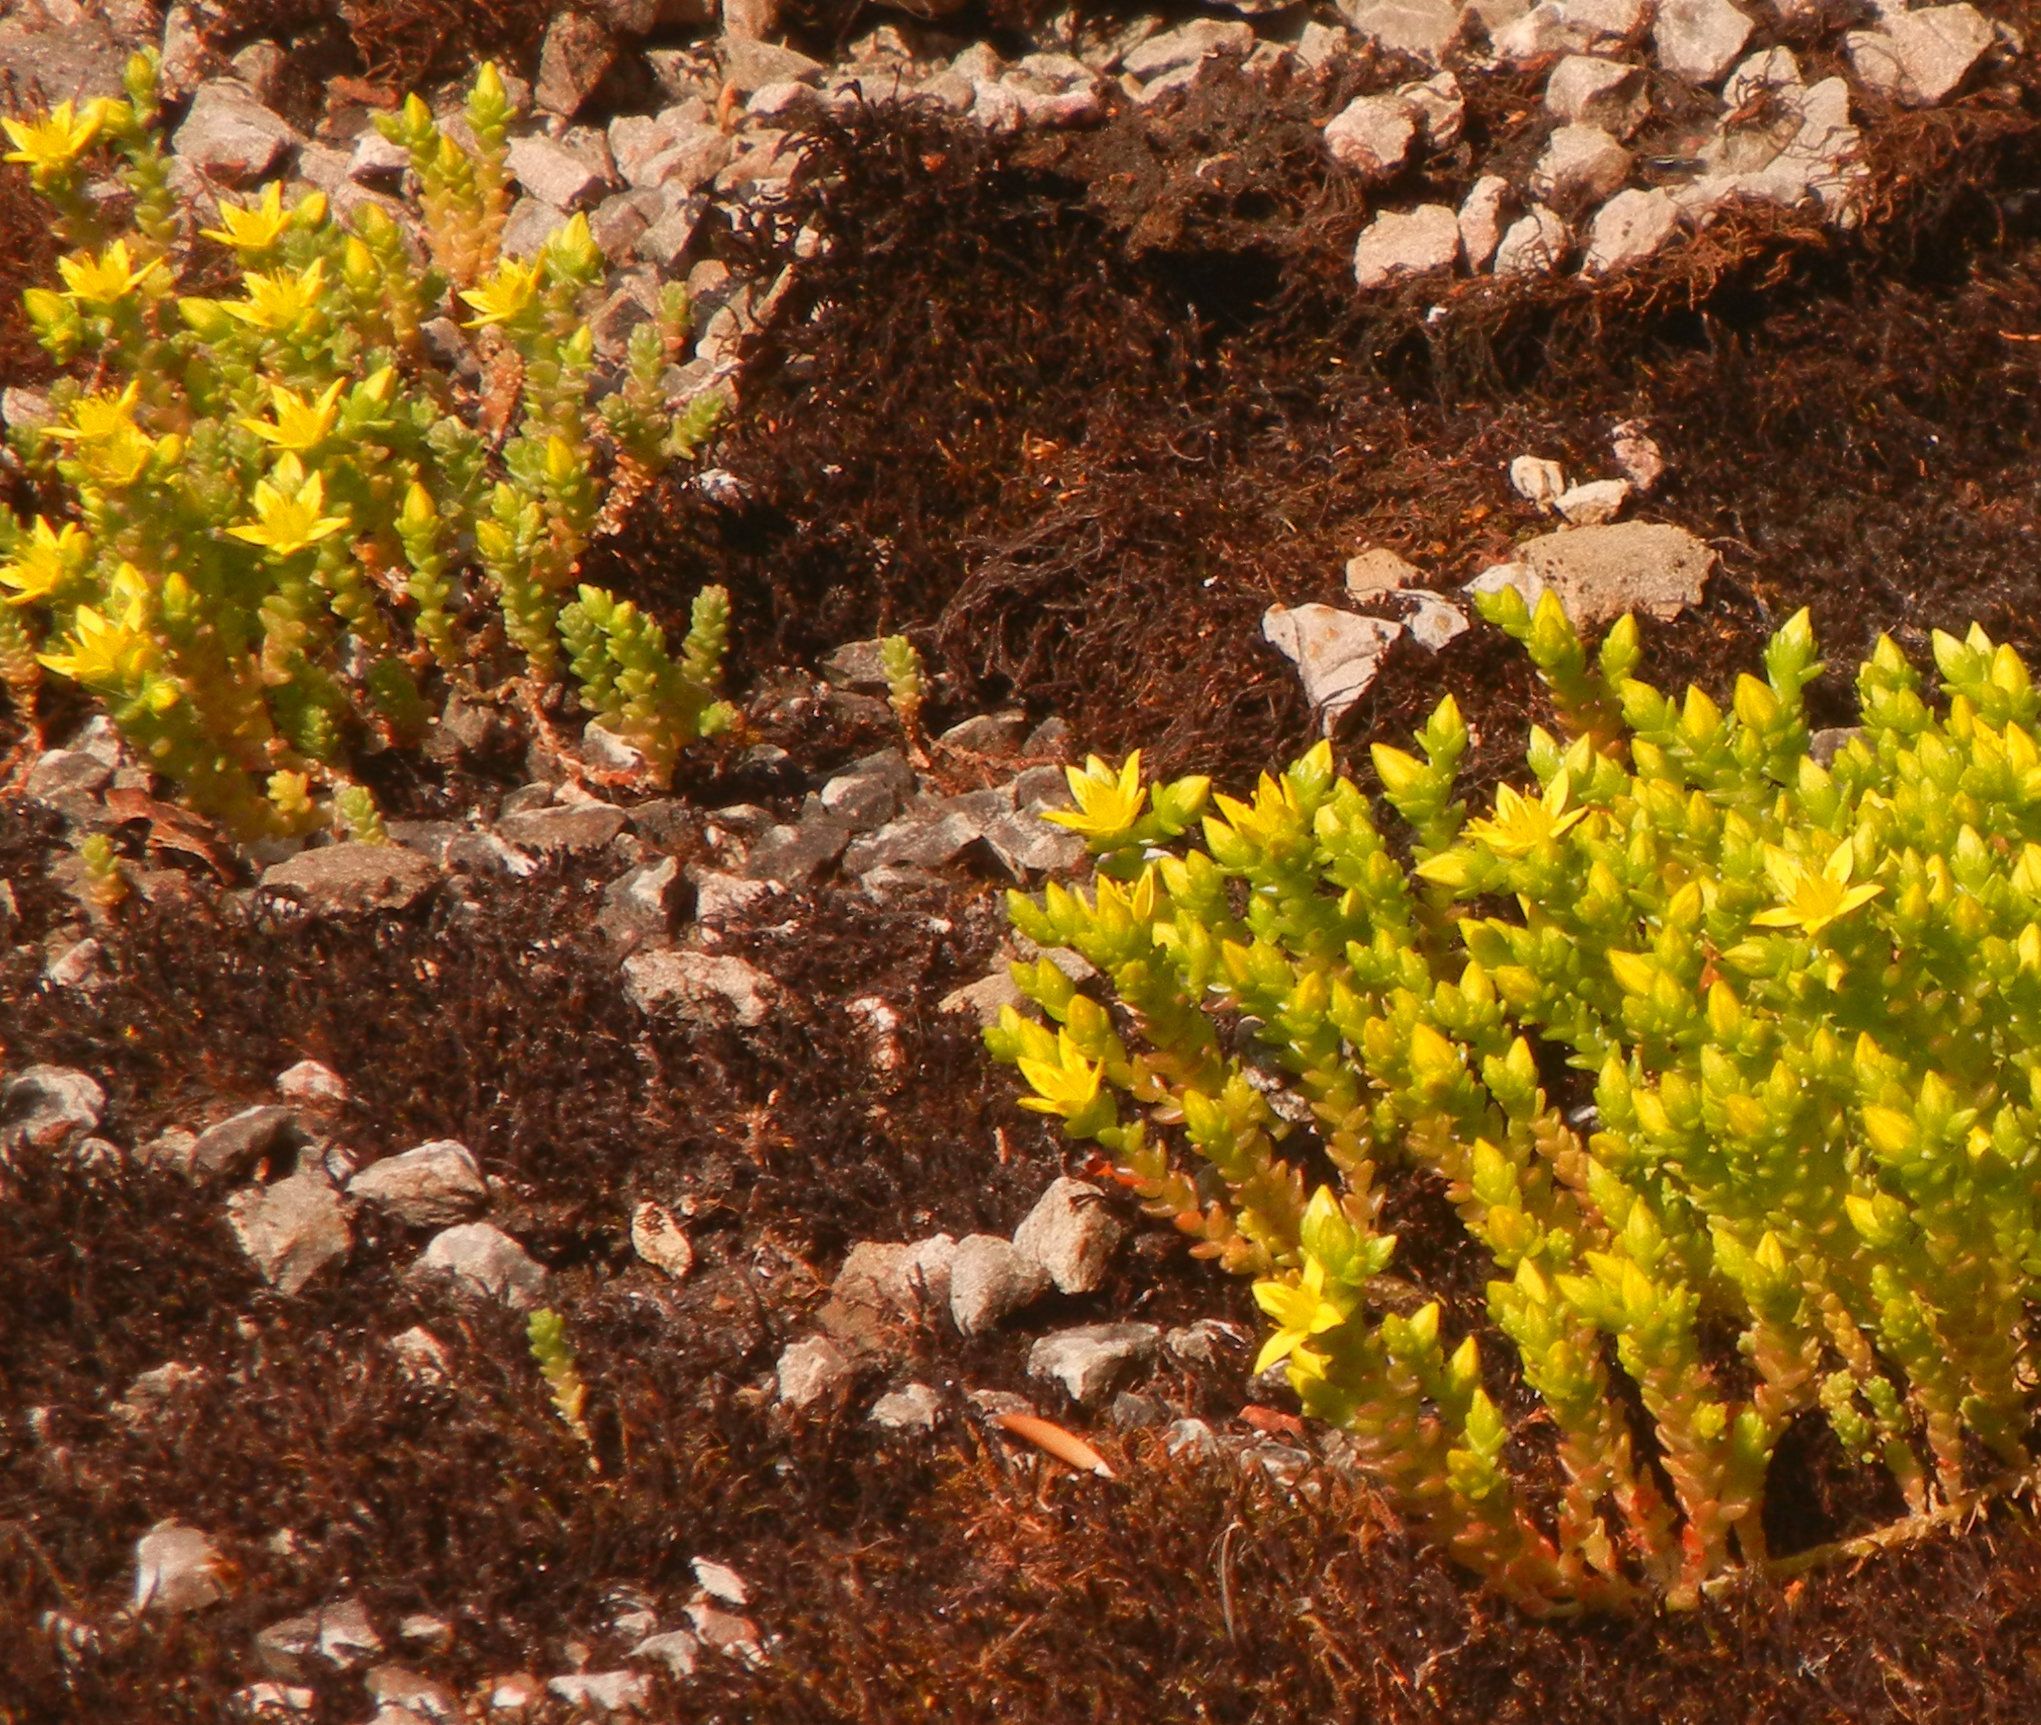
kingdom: Plantae
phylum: Tracheophyta
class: Magnoliopsida
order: Saxifragales
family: Crassulaceae
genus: Sedum
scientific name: Sedum acre
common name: Biting stonecrop
